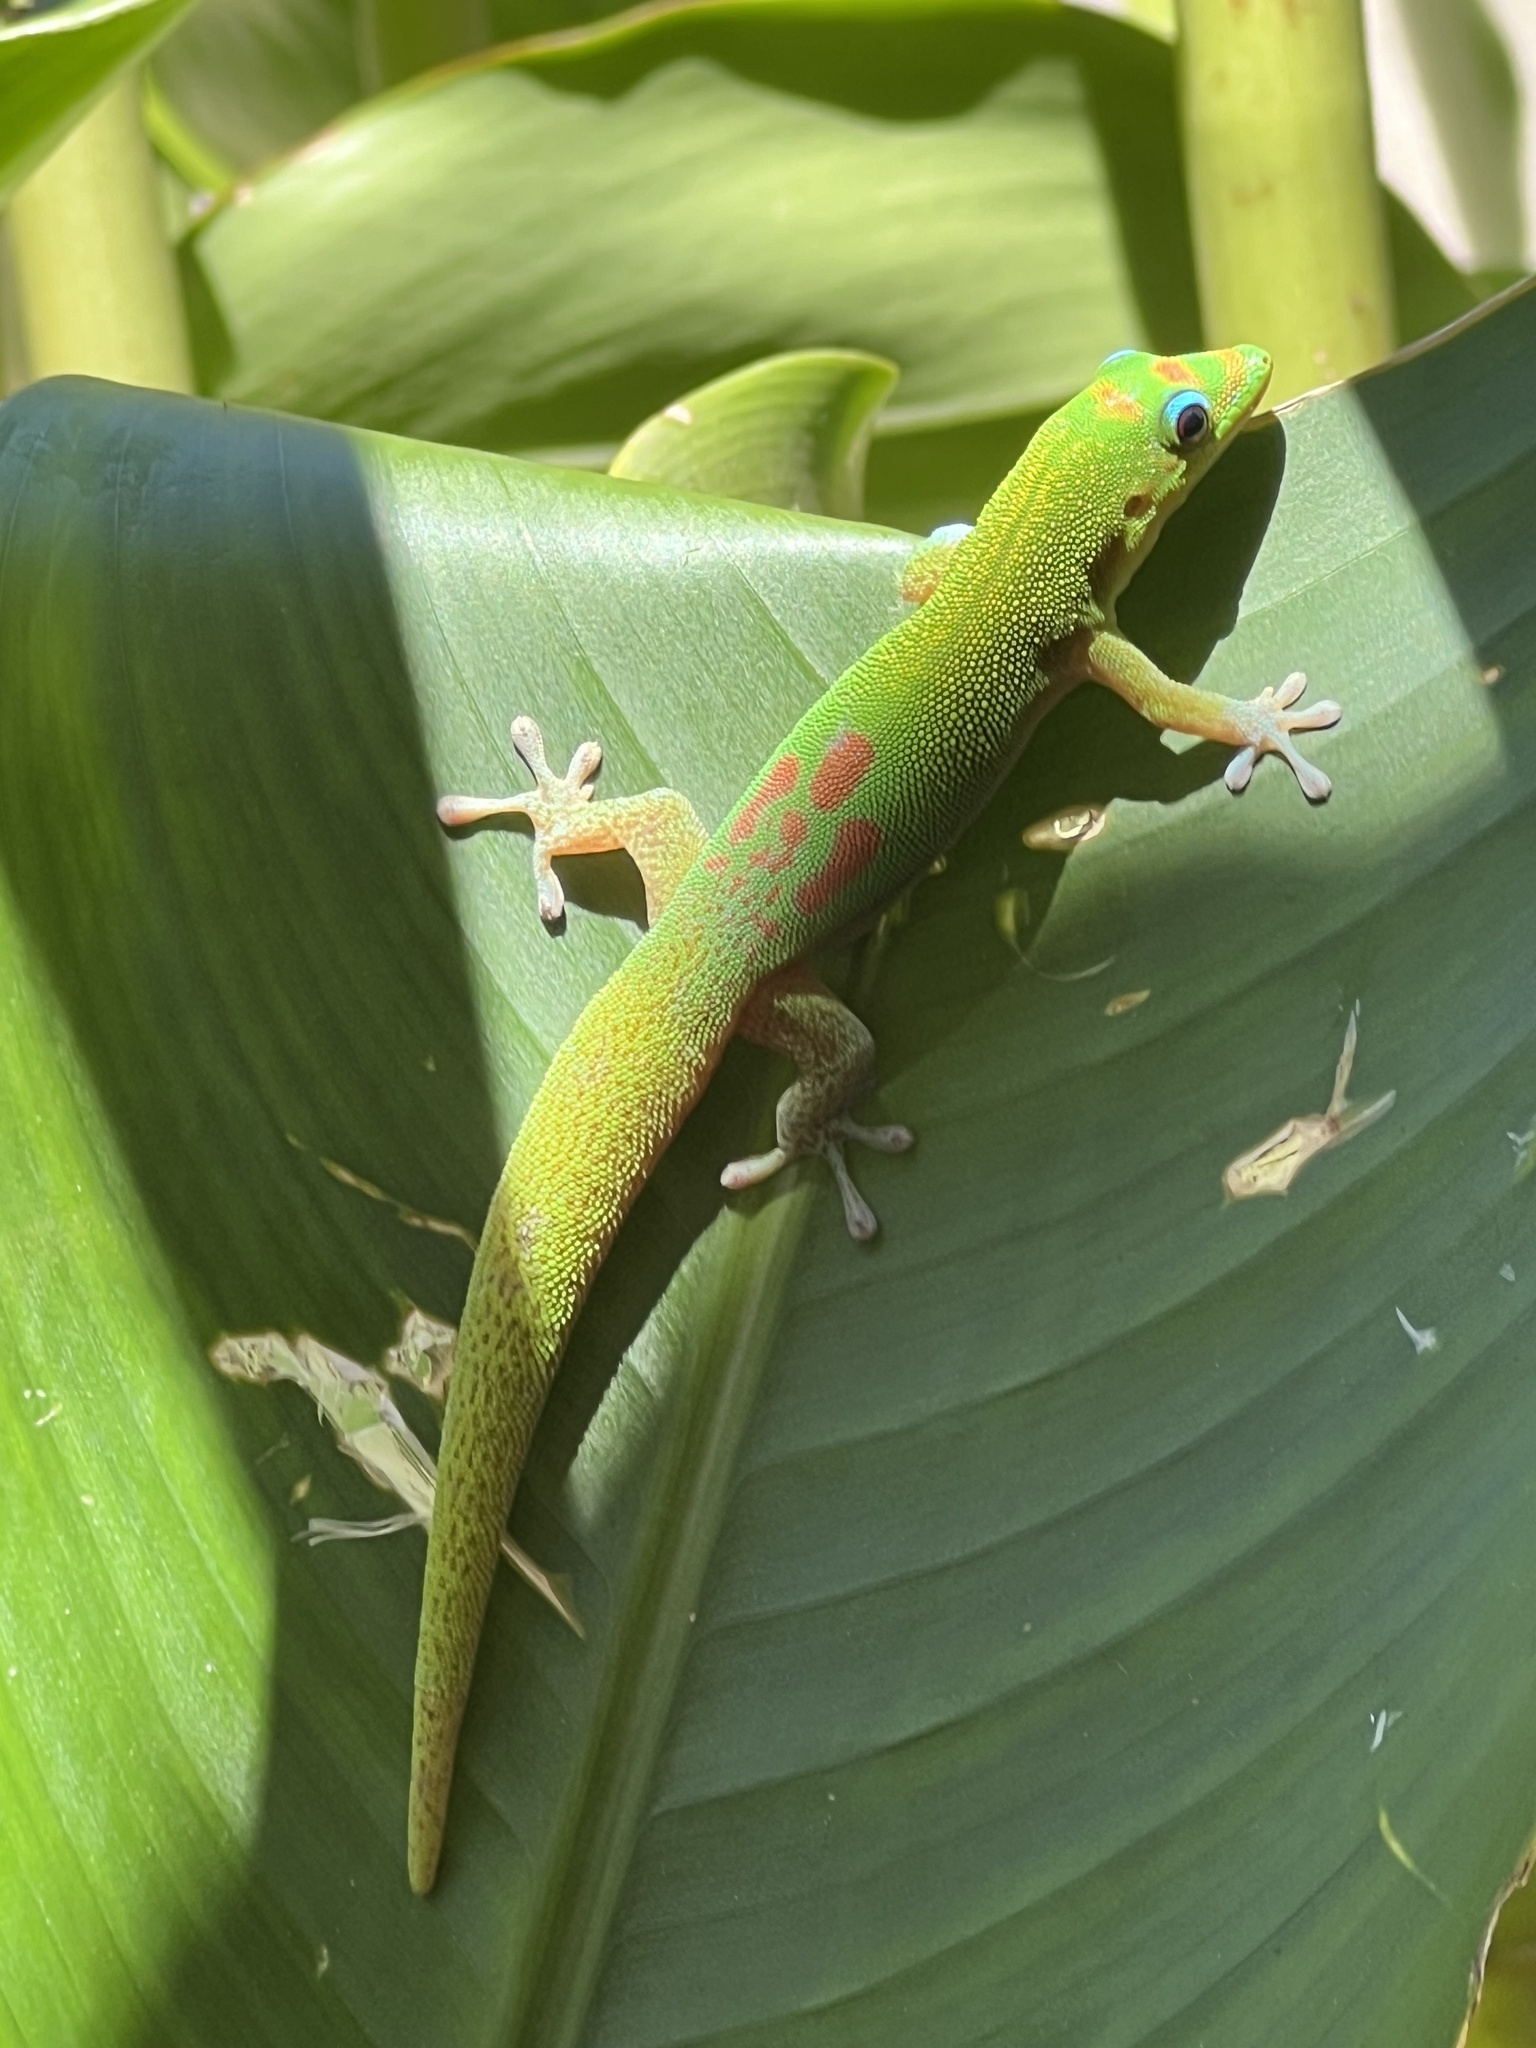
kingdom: Animalia
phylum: Chordata
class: Squamata
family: Gekkonidae
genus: Phelsuma
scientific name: Phelsuma laticauda
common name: Gold dust day gecko
